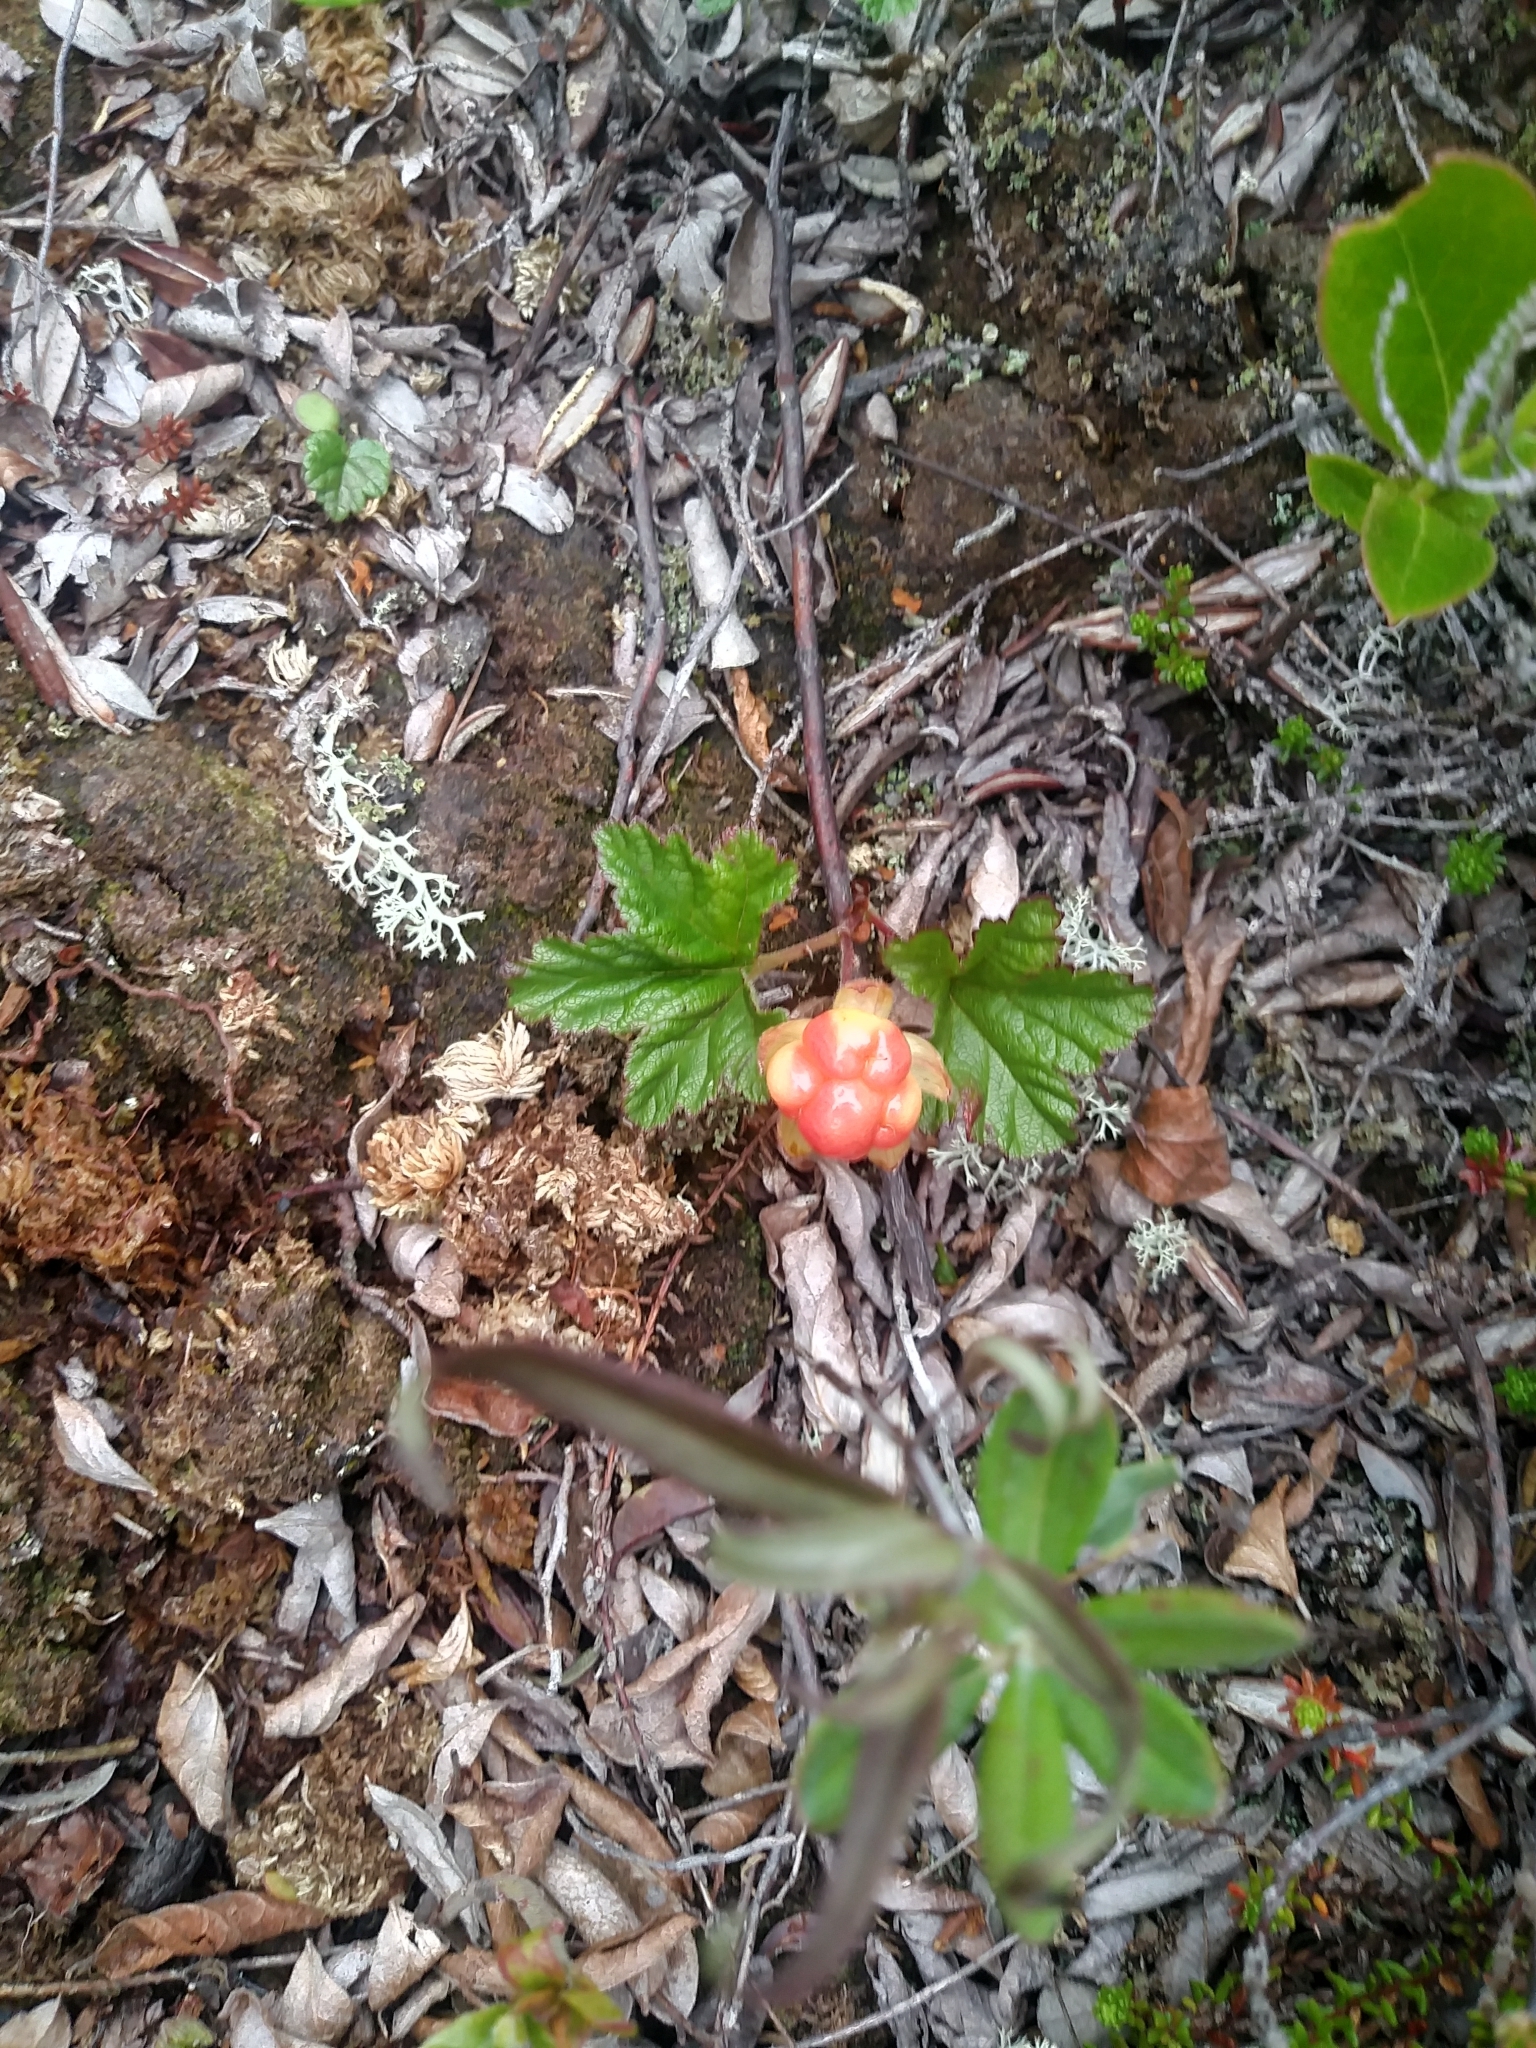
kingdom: Plantae
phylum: Tracheophyta
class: Magnoliopsida
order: Rosales
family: Rosaceae
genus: Rubus
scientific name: Rubus chamaemorus
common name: Cloudberry
